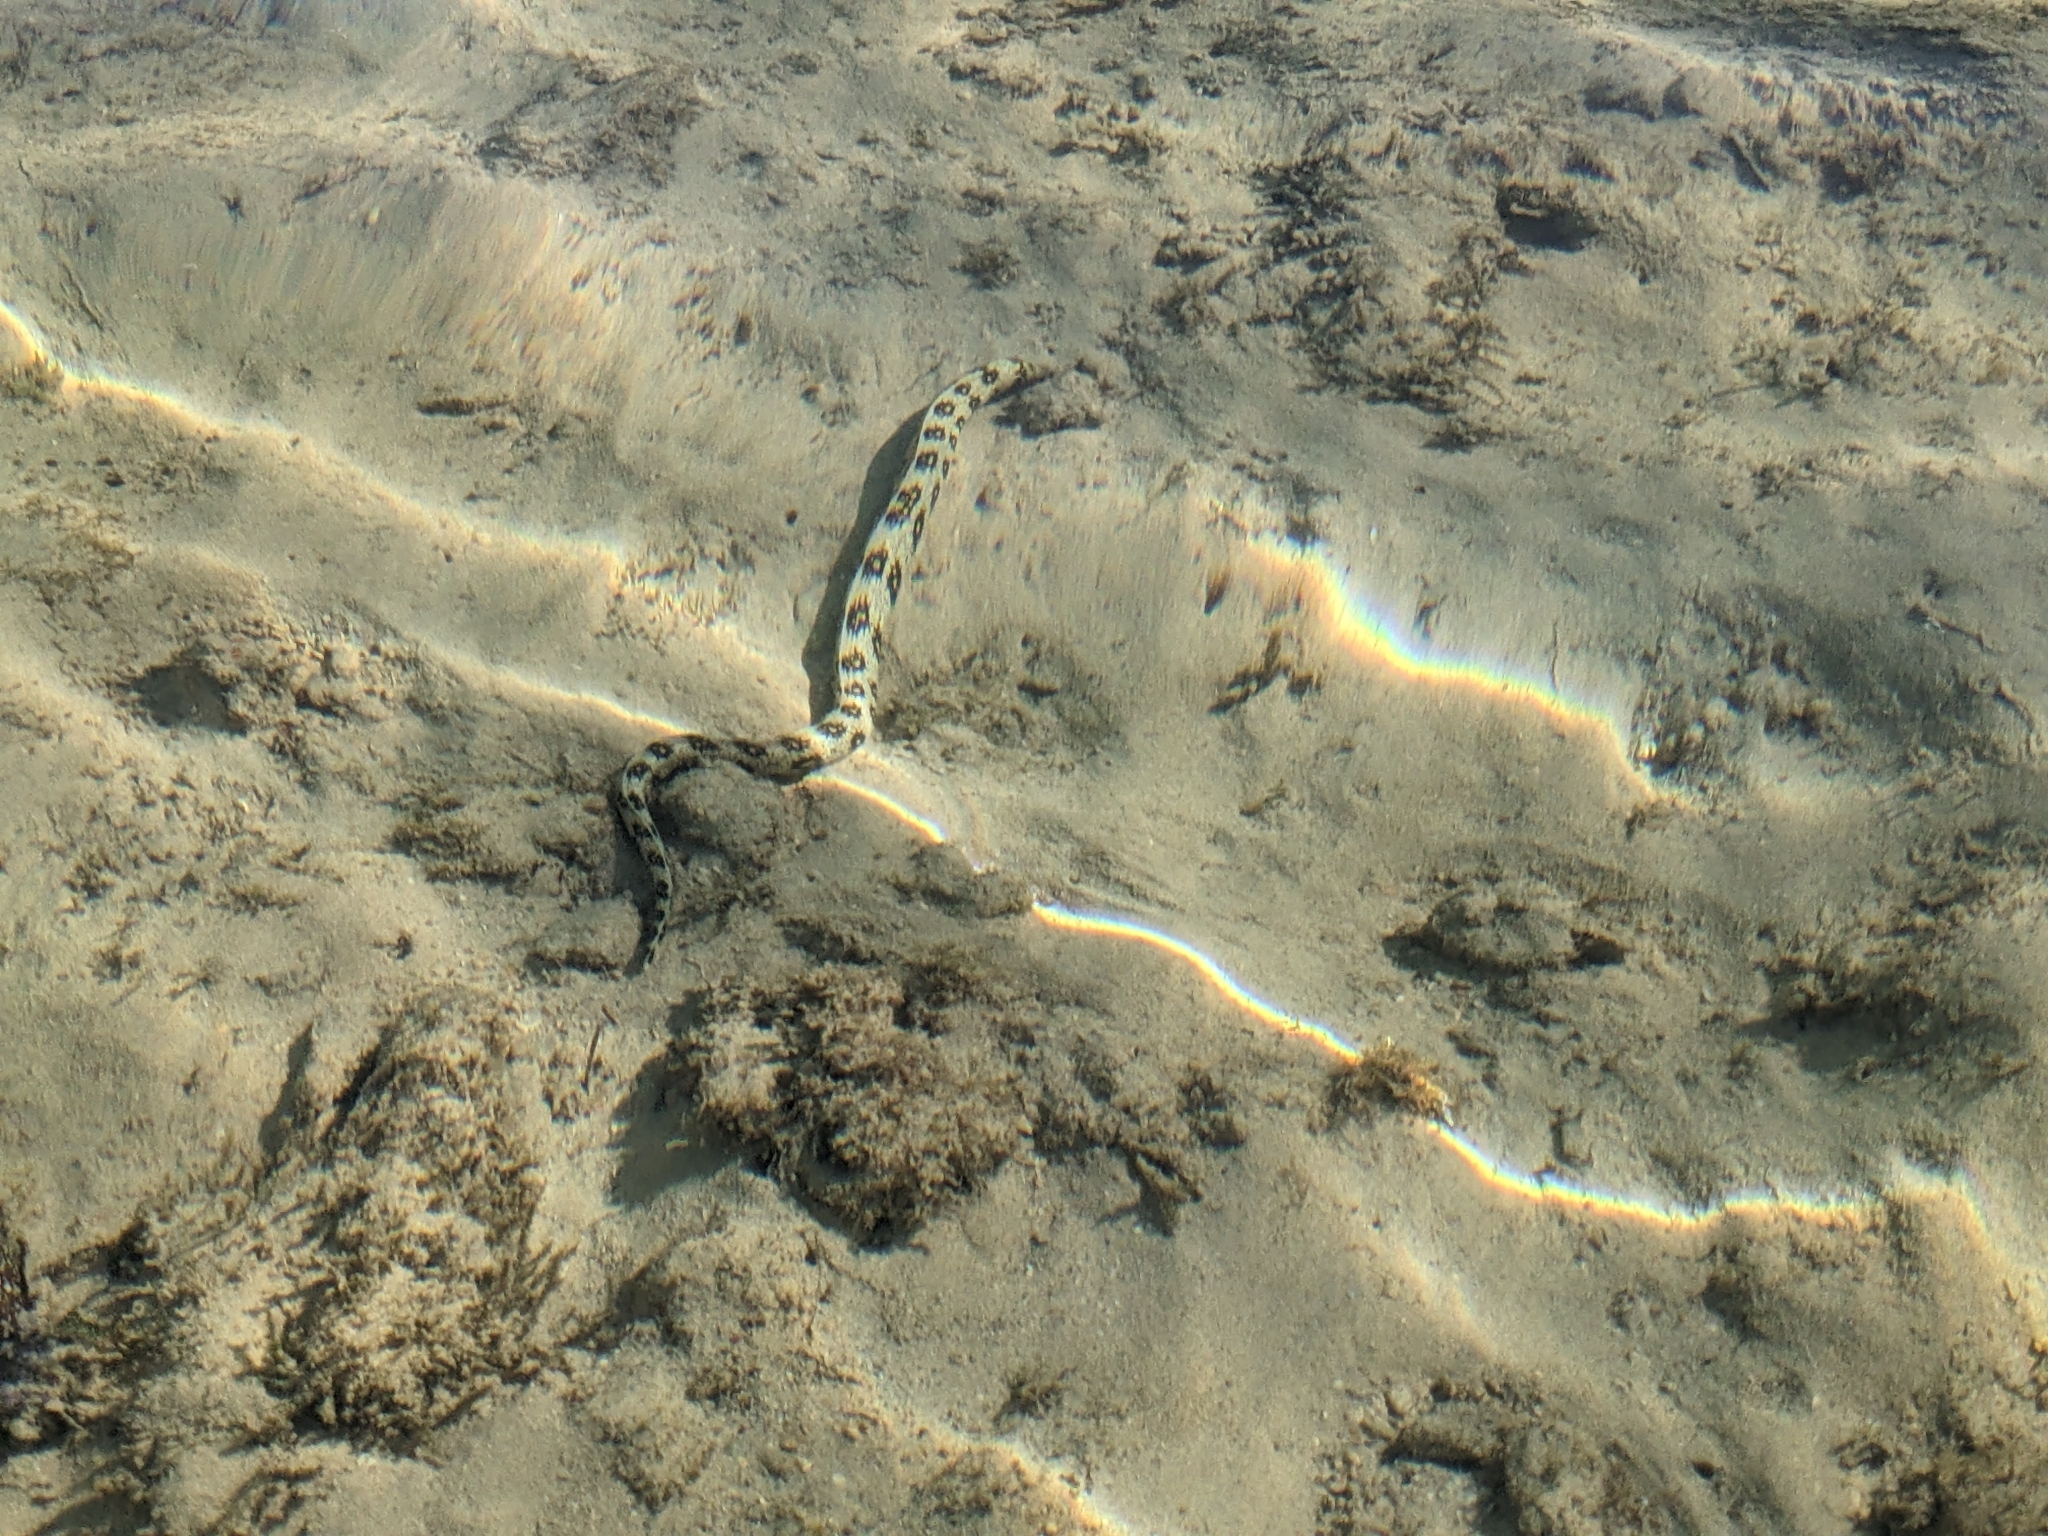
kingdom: Animalia
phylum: Chordata
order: Anguilliformes
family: Muraenidae
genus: Echidna
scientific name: Echidna nebulosa
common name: Snowflake moray
